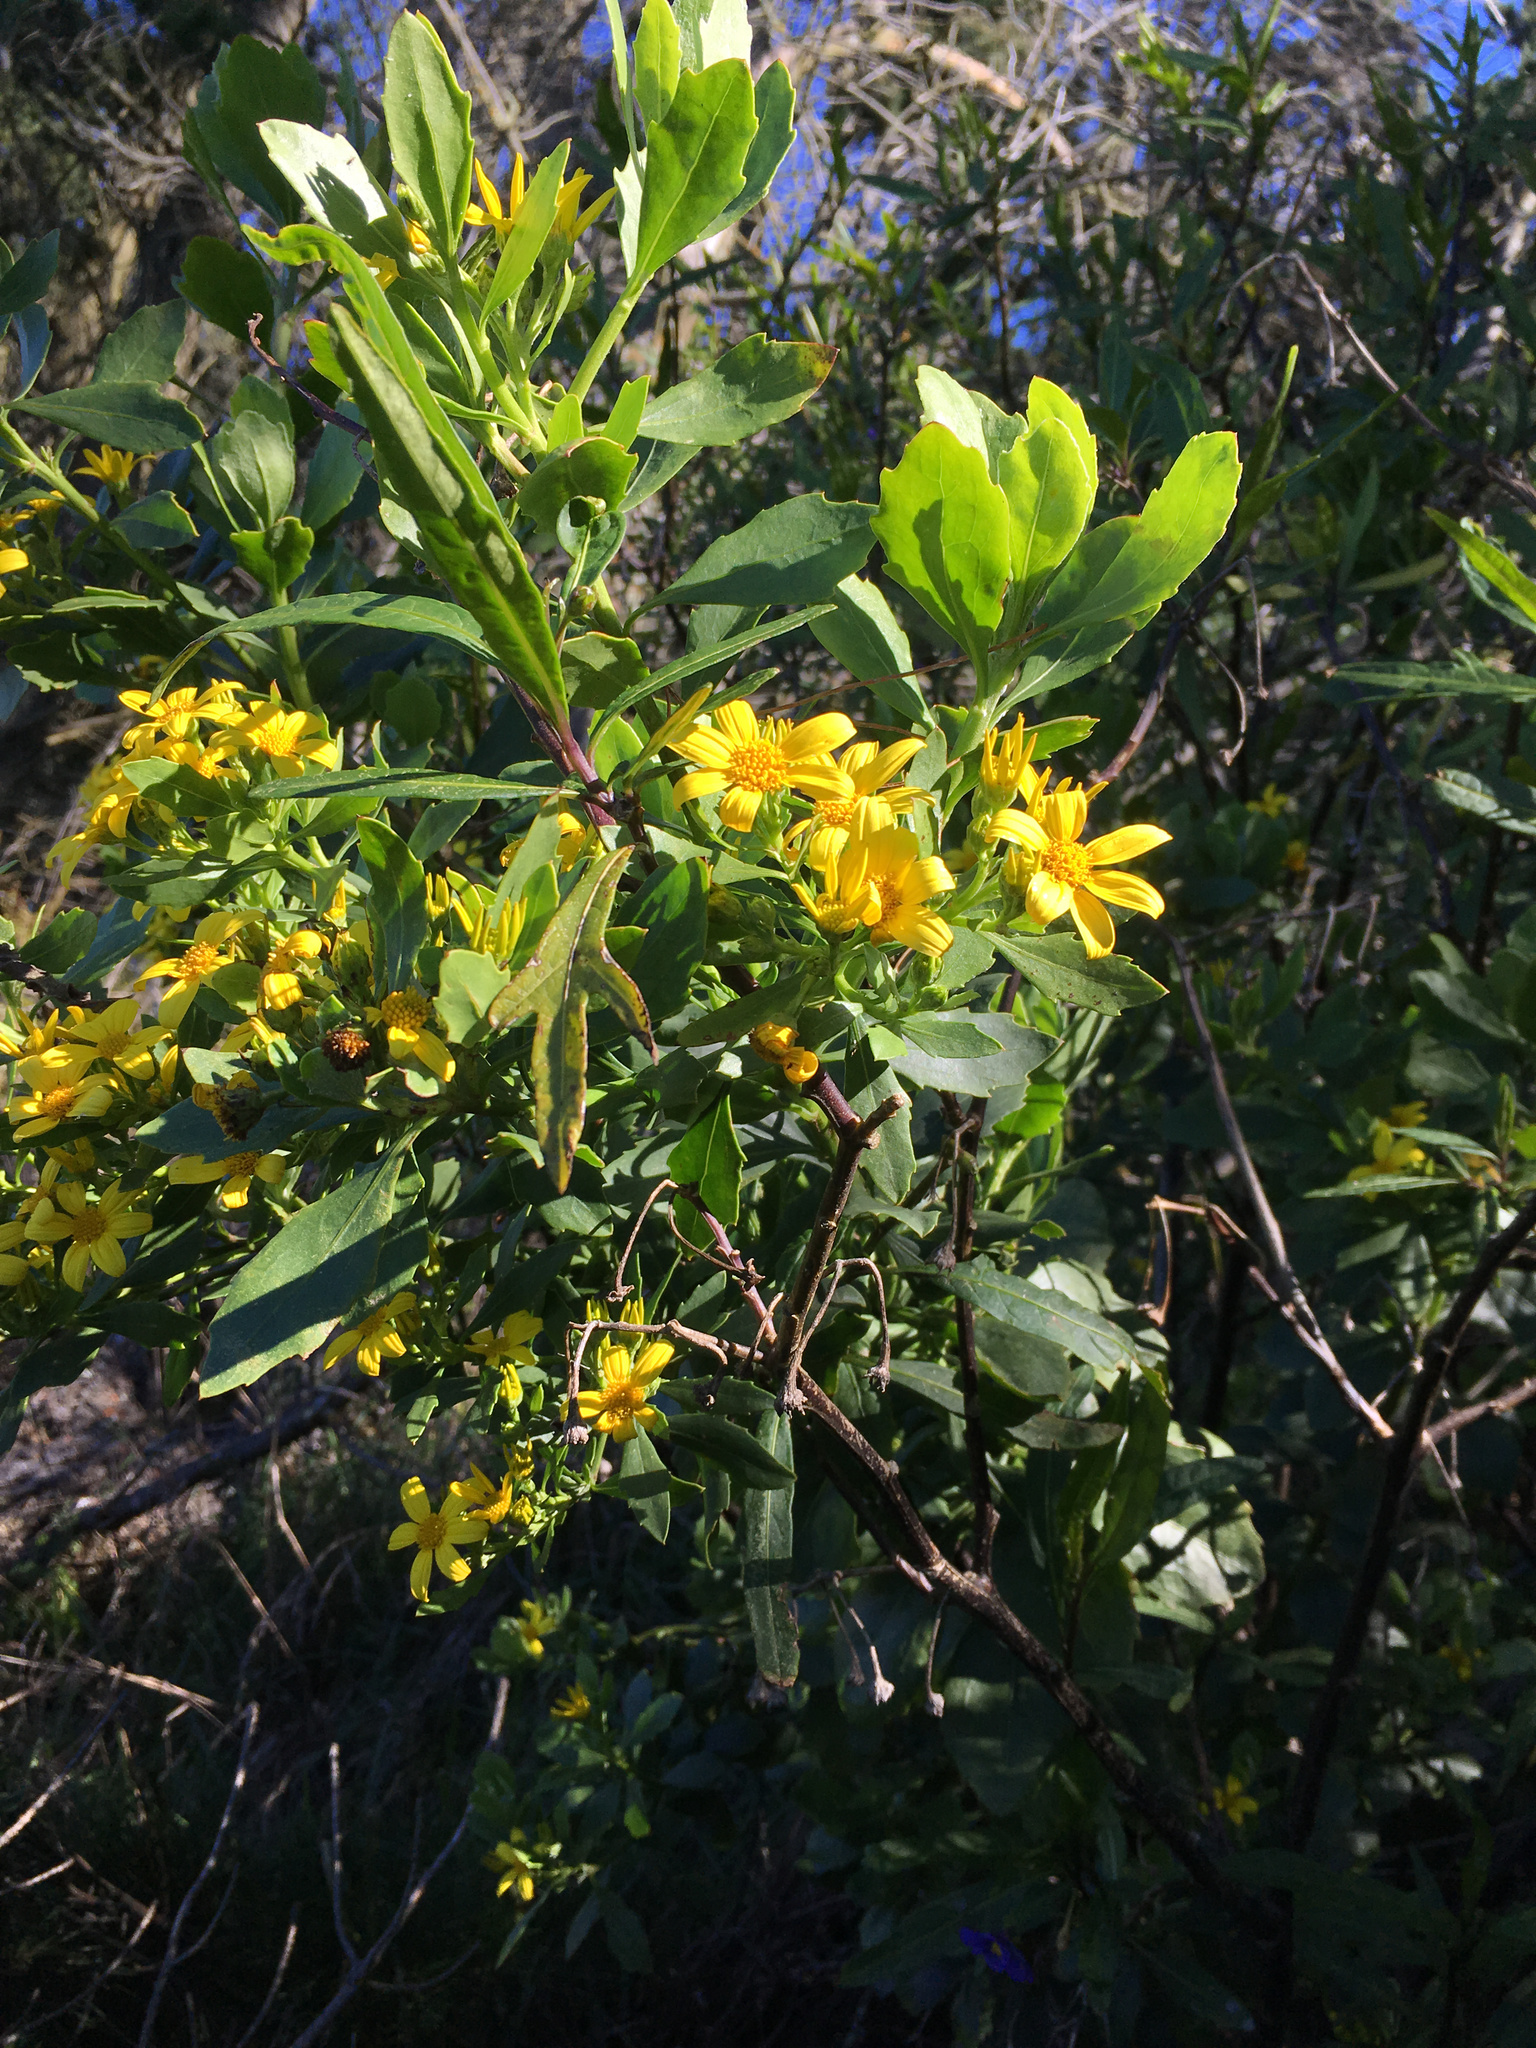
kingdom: Plantae
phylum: Tracheophyta
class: Magnoliopsida
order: Asterales
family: Asteraceae
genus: Osteospermum
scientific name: Osteospermum moniliferum
